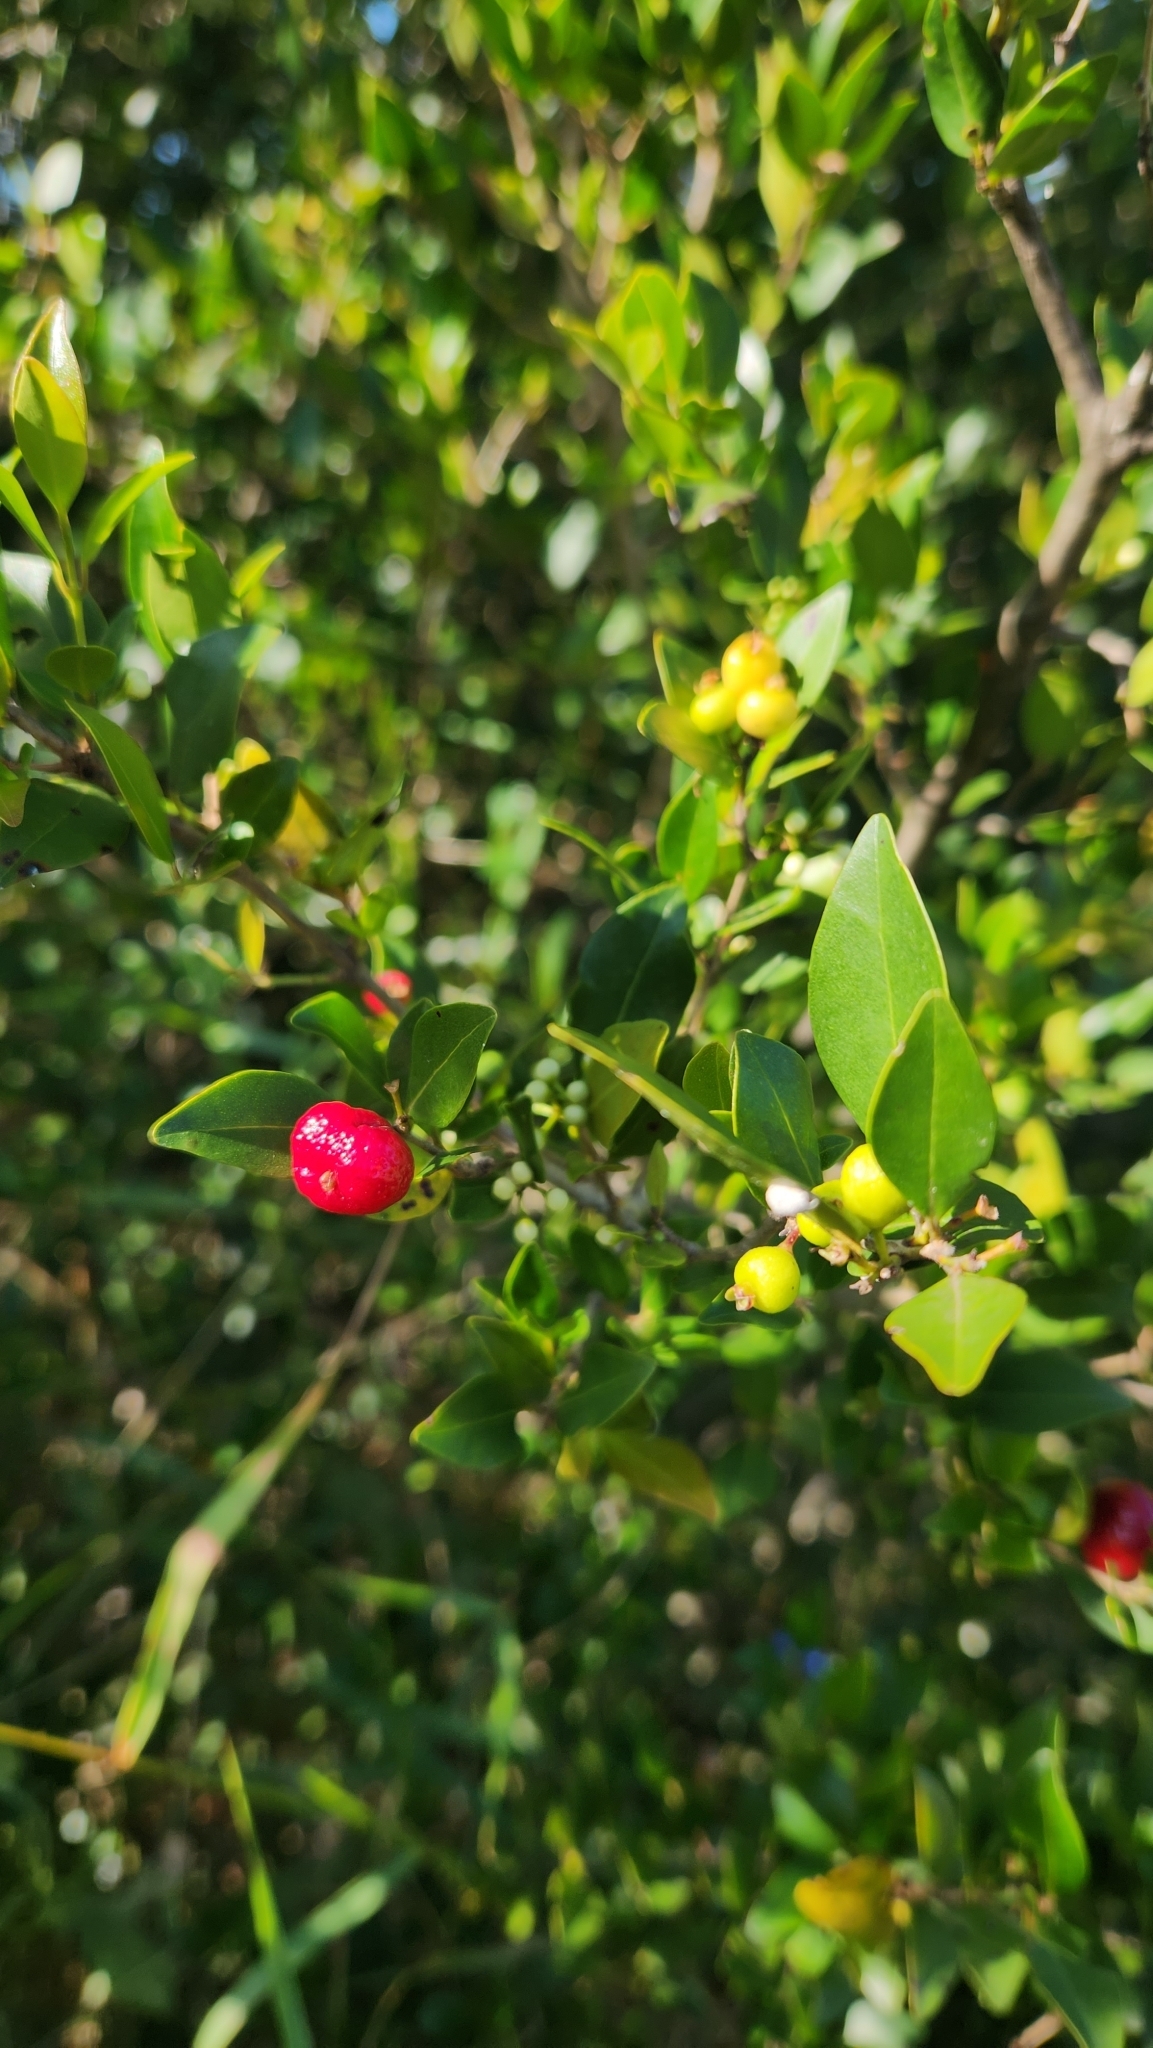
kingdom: Plantae
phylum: Tracheophyta
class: Magnoliopsida
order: Myrtales
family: Myrtaceae
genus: Eugenia
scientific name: Eugenia repanda
